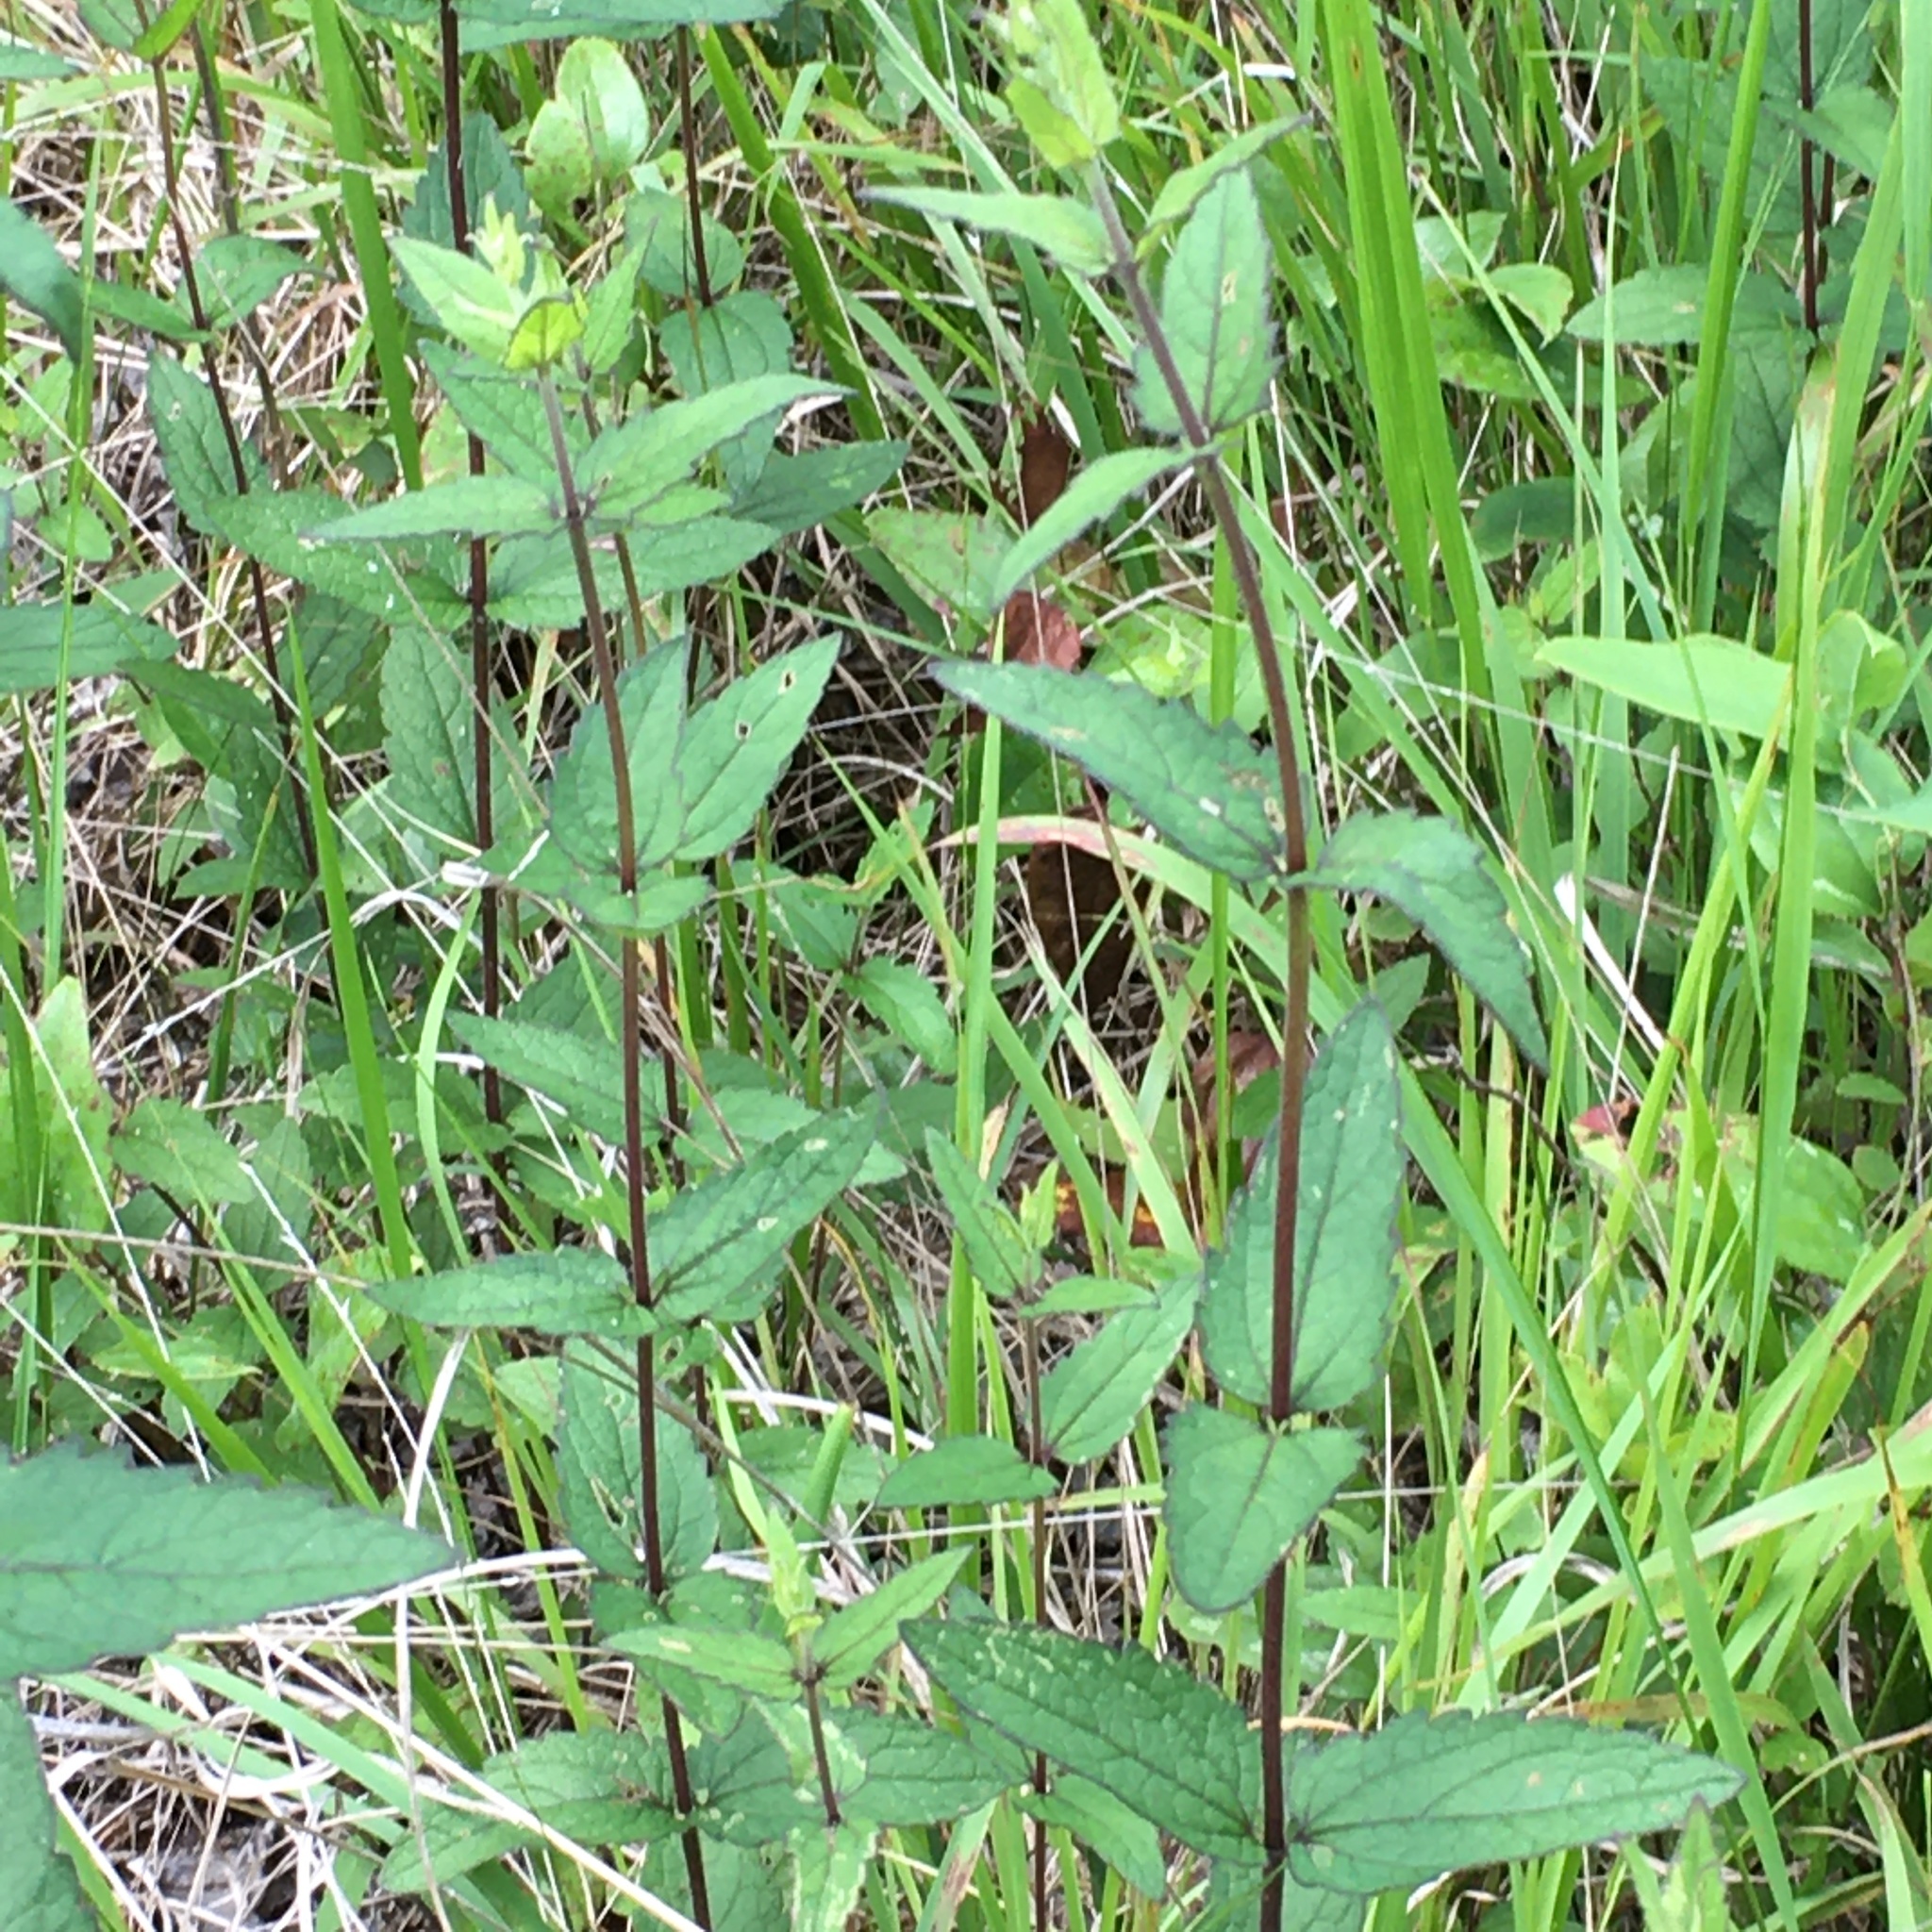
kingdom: Plantae
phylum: Tracheophyta
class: Magnoliopsida
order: Asterales
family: Asteraceae
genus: Eupatorium
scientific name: Eupatorium pilosum
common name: Rough boneset
